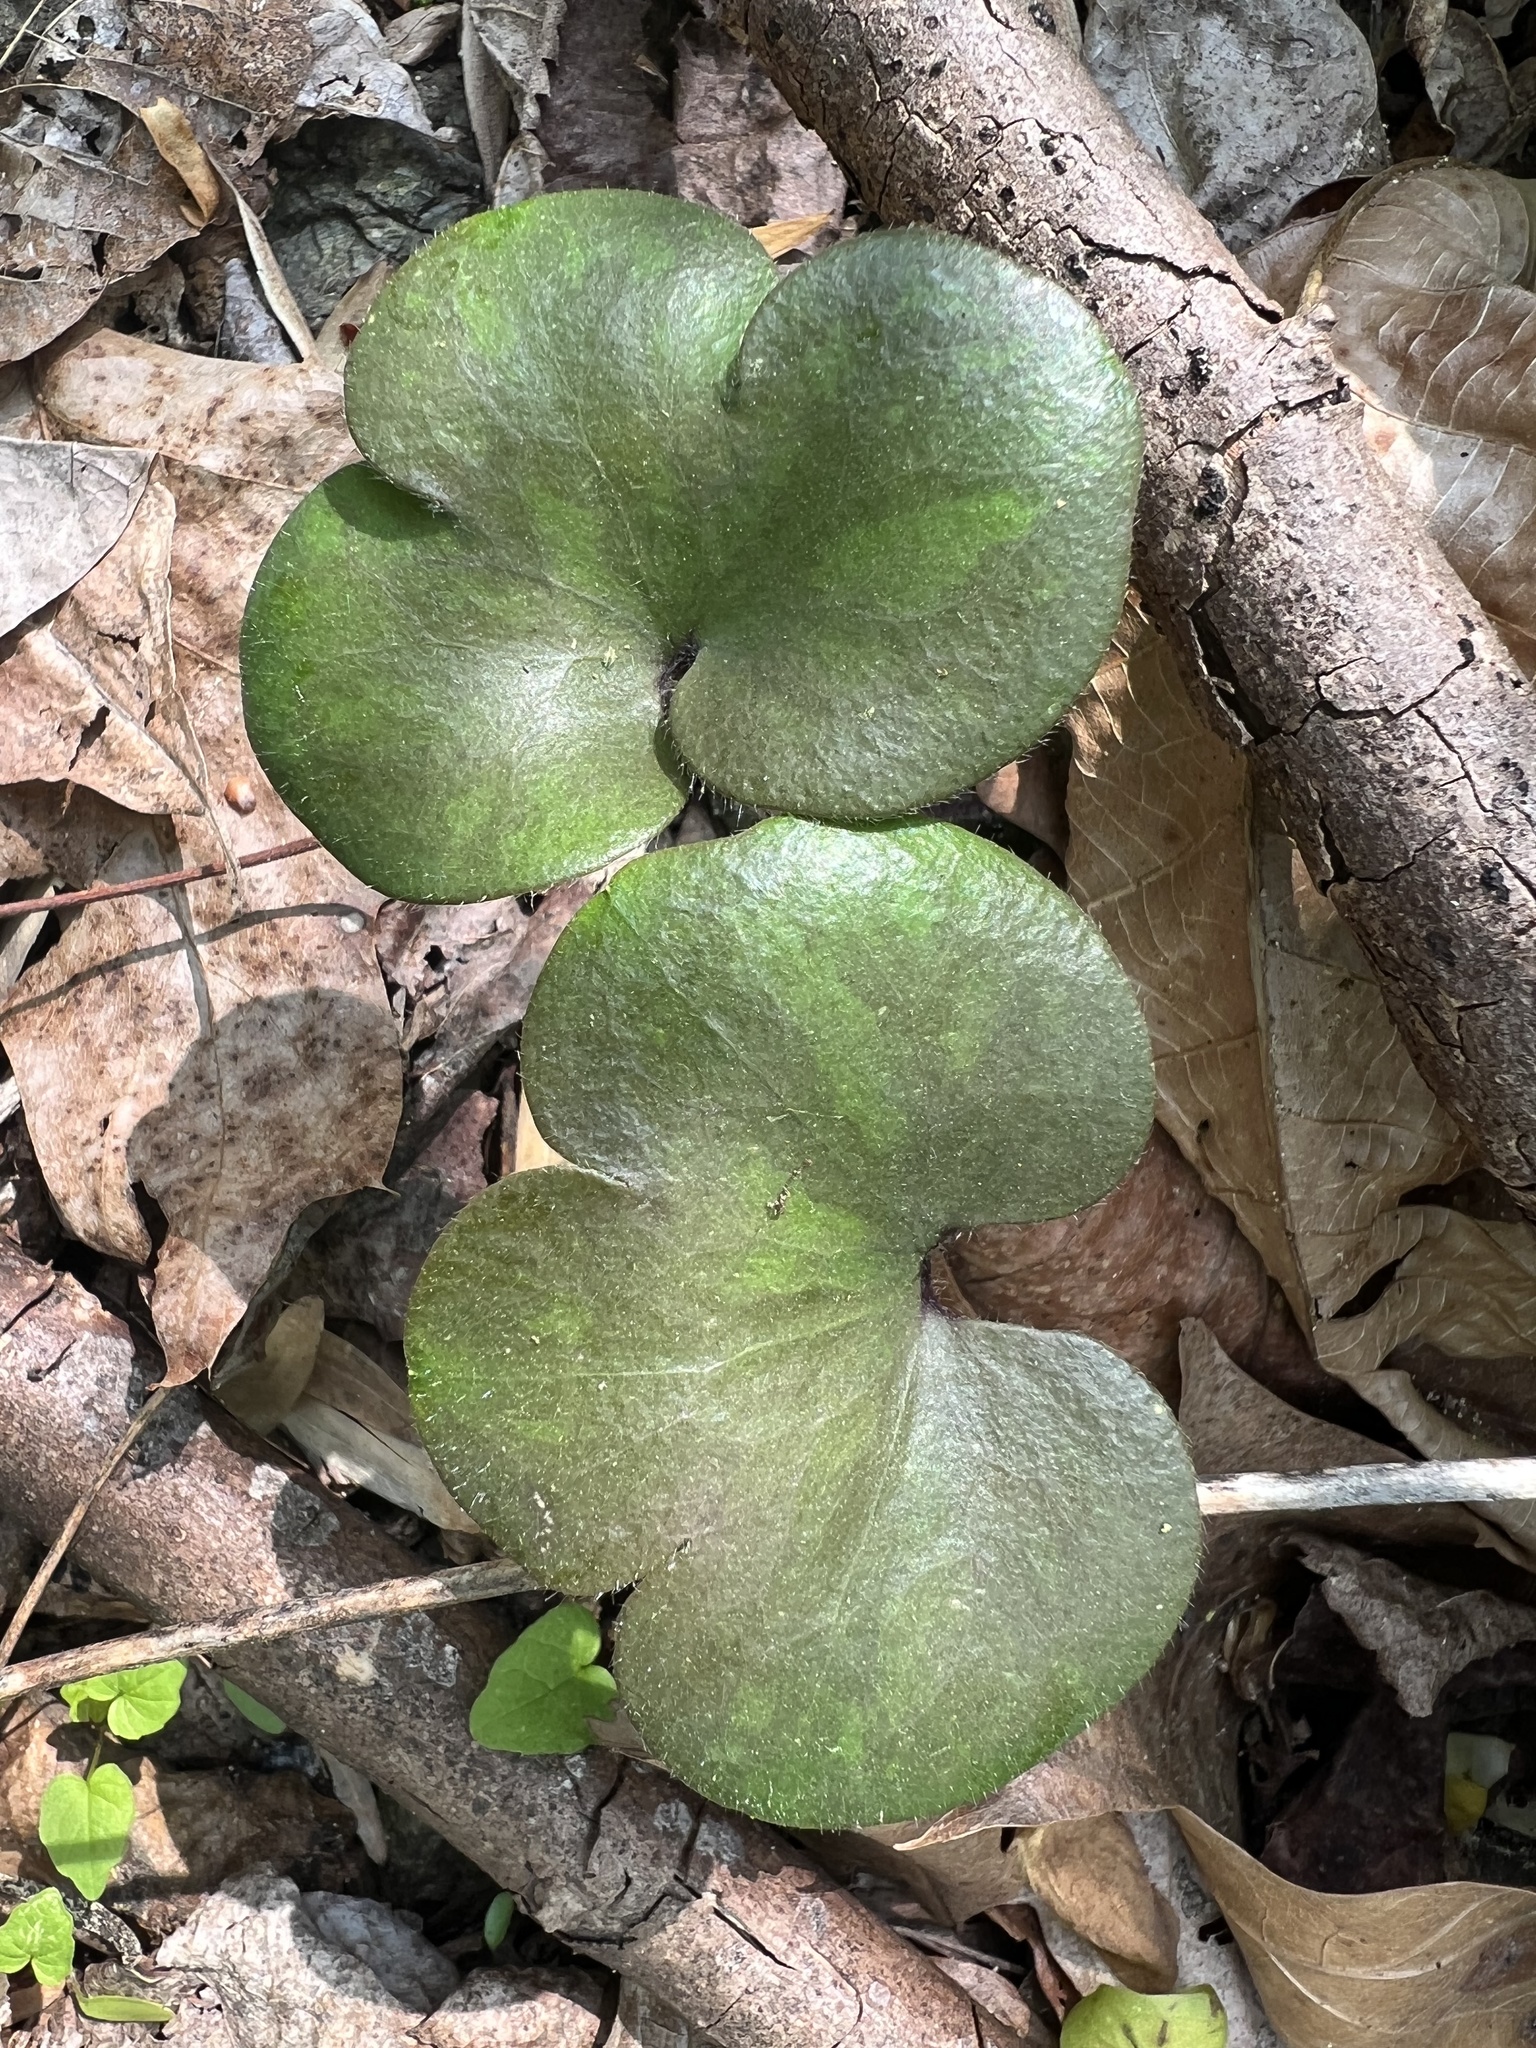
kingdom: Plantae
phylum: Tracheophyta
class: Magnoliopsida
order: Ranunculales
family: Ranunculaceae
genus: Hepatica
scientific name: Hepatica americana
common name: American hepatica
